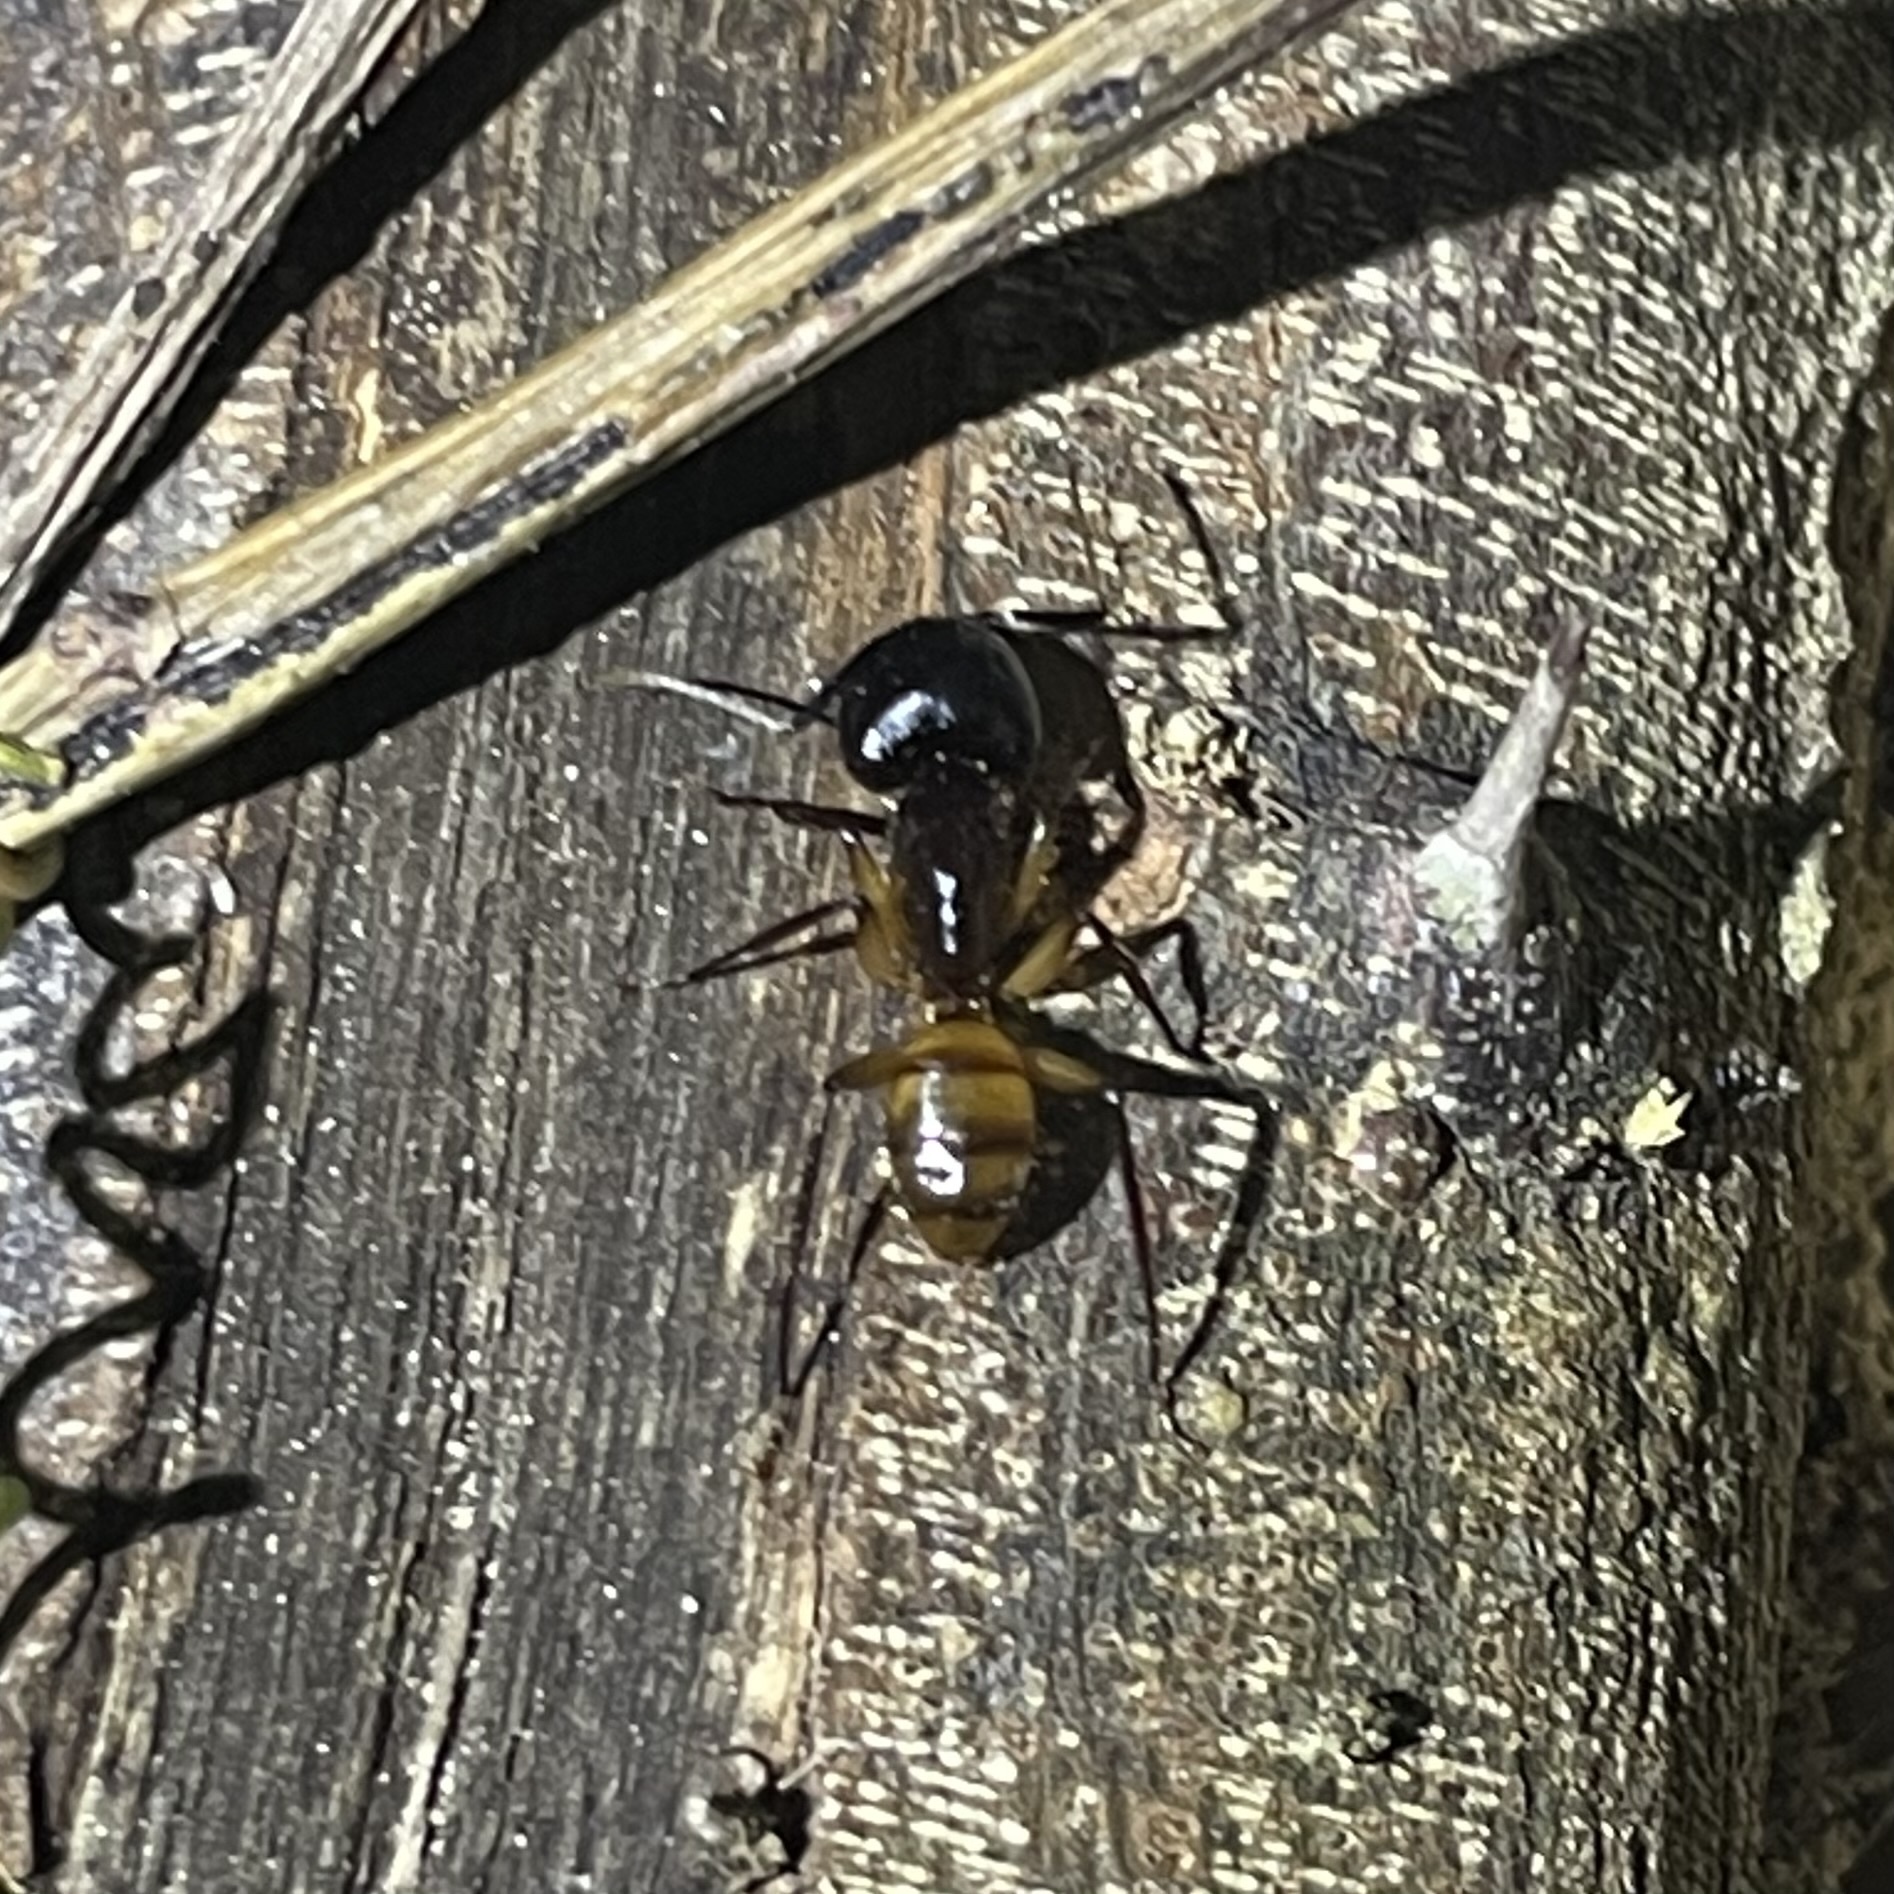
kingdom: Animalia
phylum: Arthropoda
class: Insecta
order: Hymenoptera
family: Formicidae
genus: Camponotus
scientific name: Camponotus atriceps
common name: Florida carpenter ant
